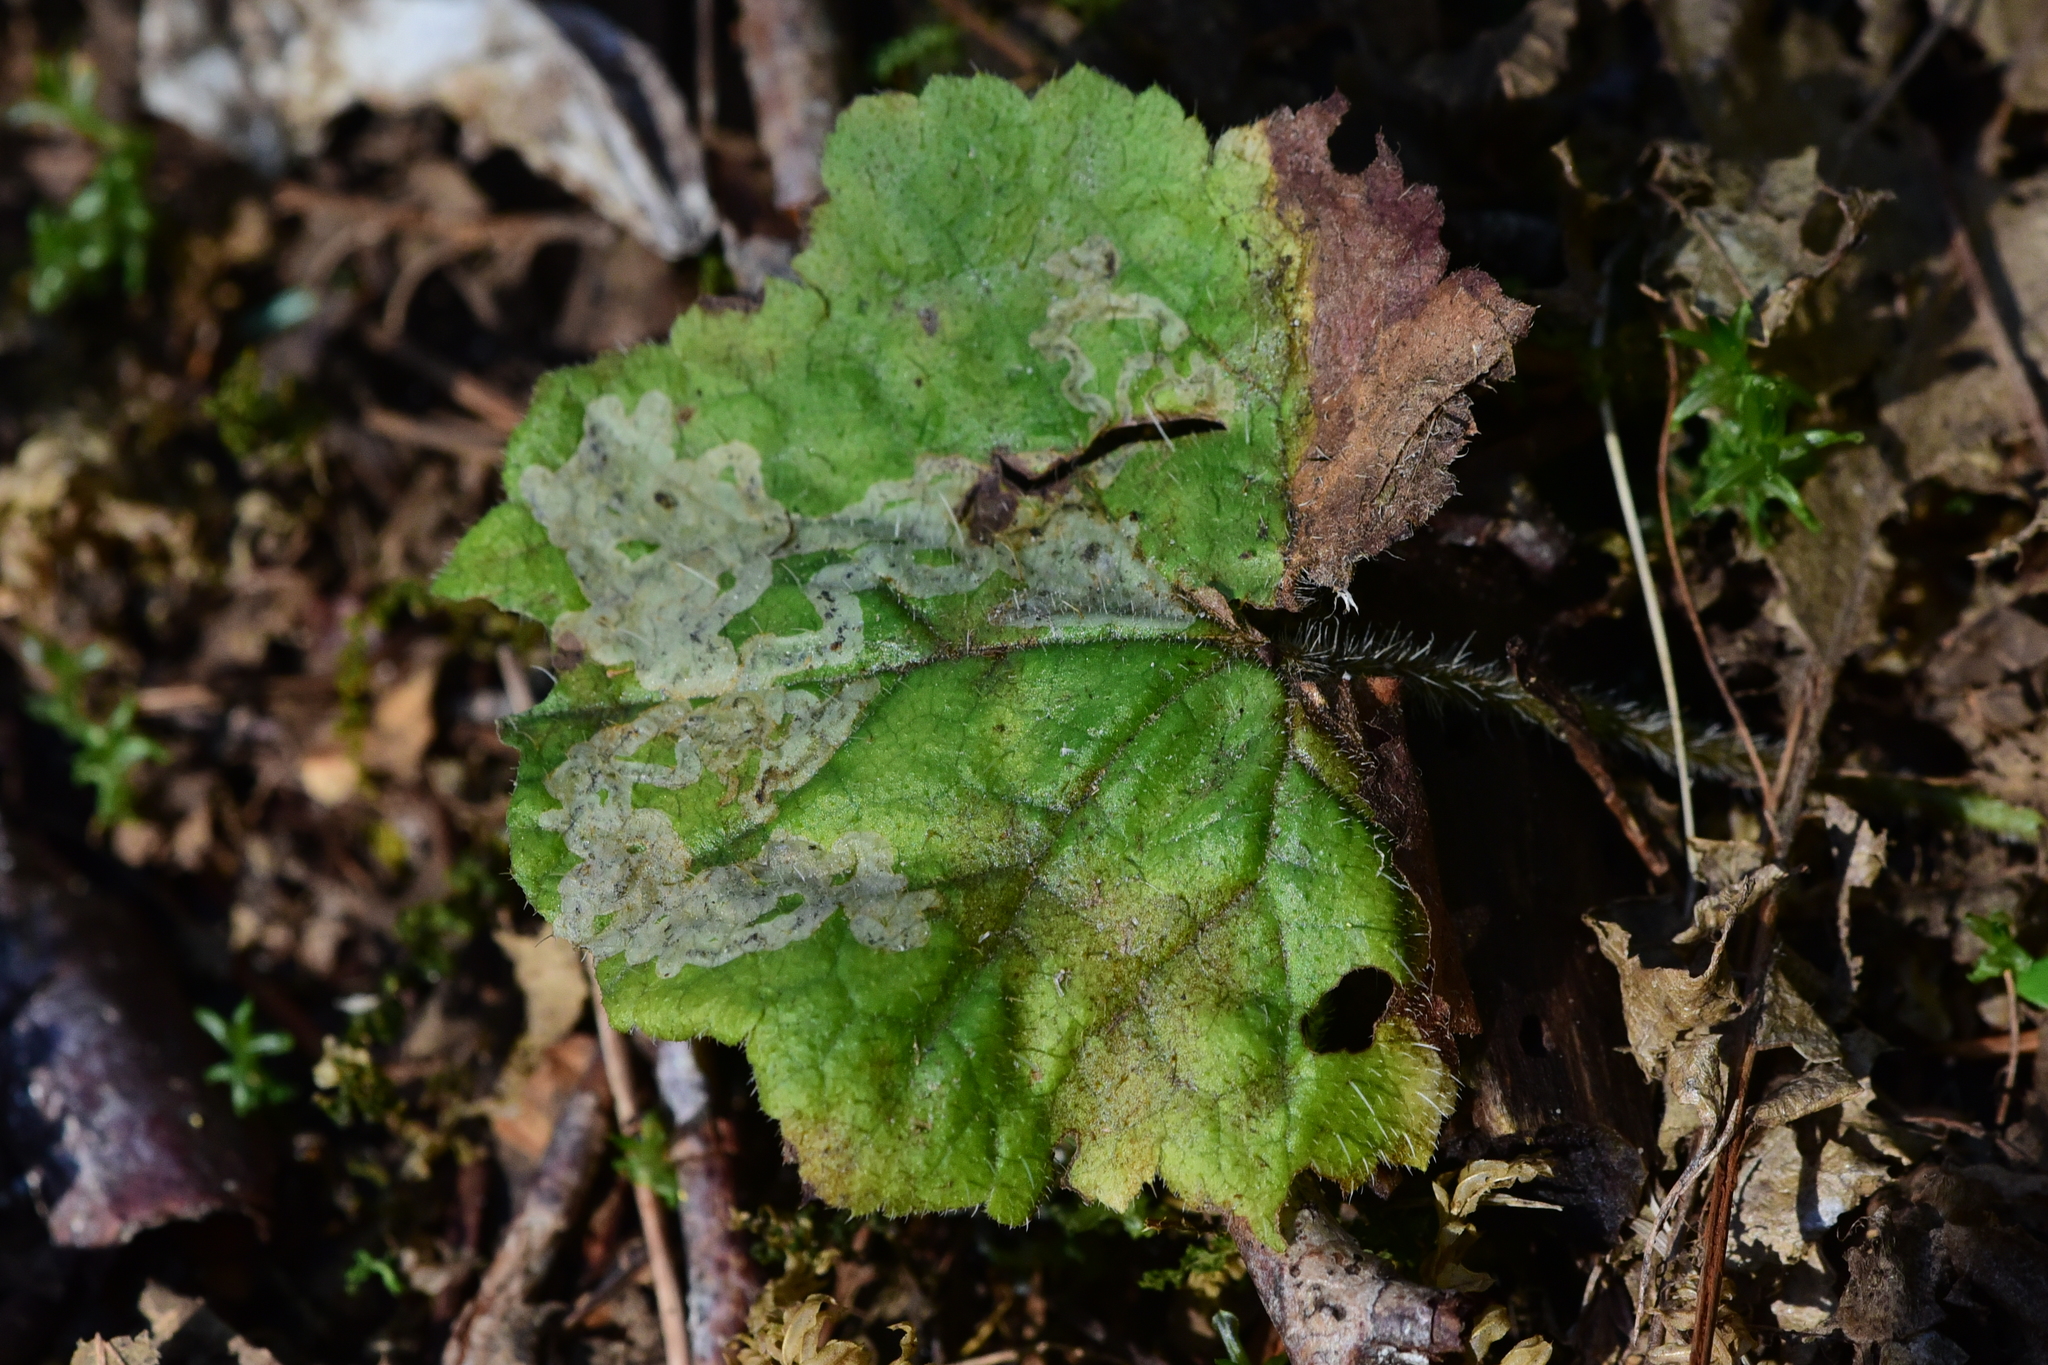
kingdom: Animalia
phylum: Arthropoda
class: Insecta
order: Diptera
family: Agromyzidae
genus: Phytomyza
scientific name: Phytomyza tiarellae
